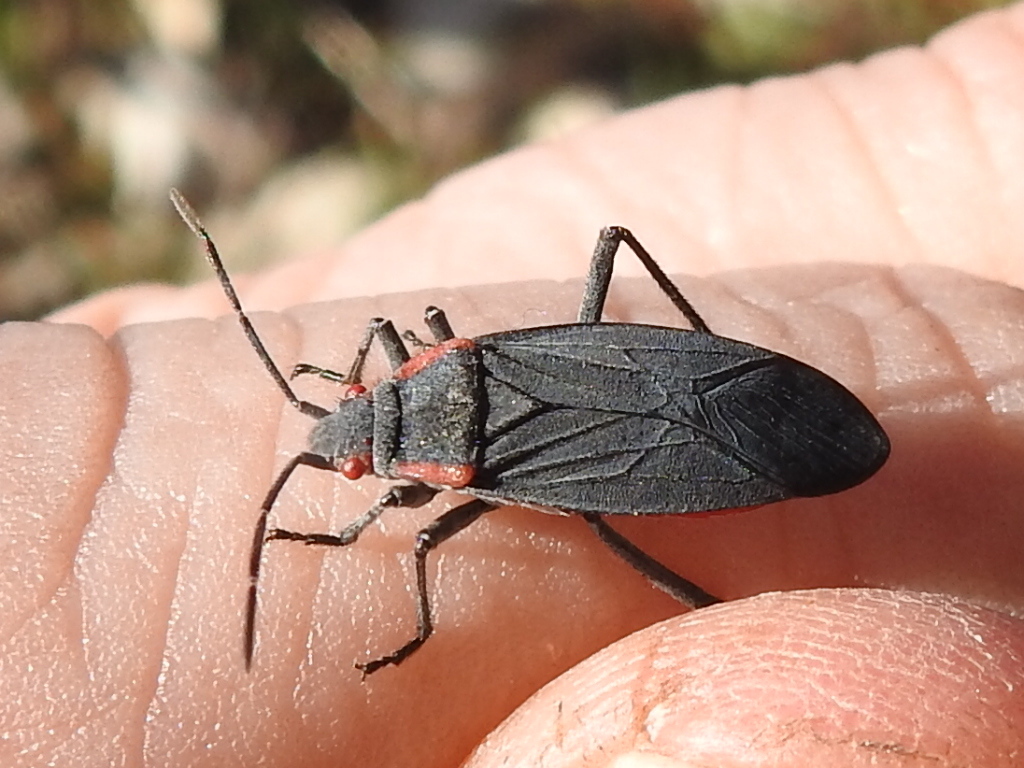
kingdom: Animalia
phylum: Arthropoda
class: Insecta
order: Hemiptera
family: Rhopalidae
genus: Jadera
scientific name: Jadera haematoloma
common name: Red-shouldered bug
